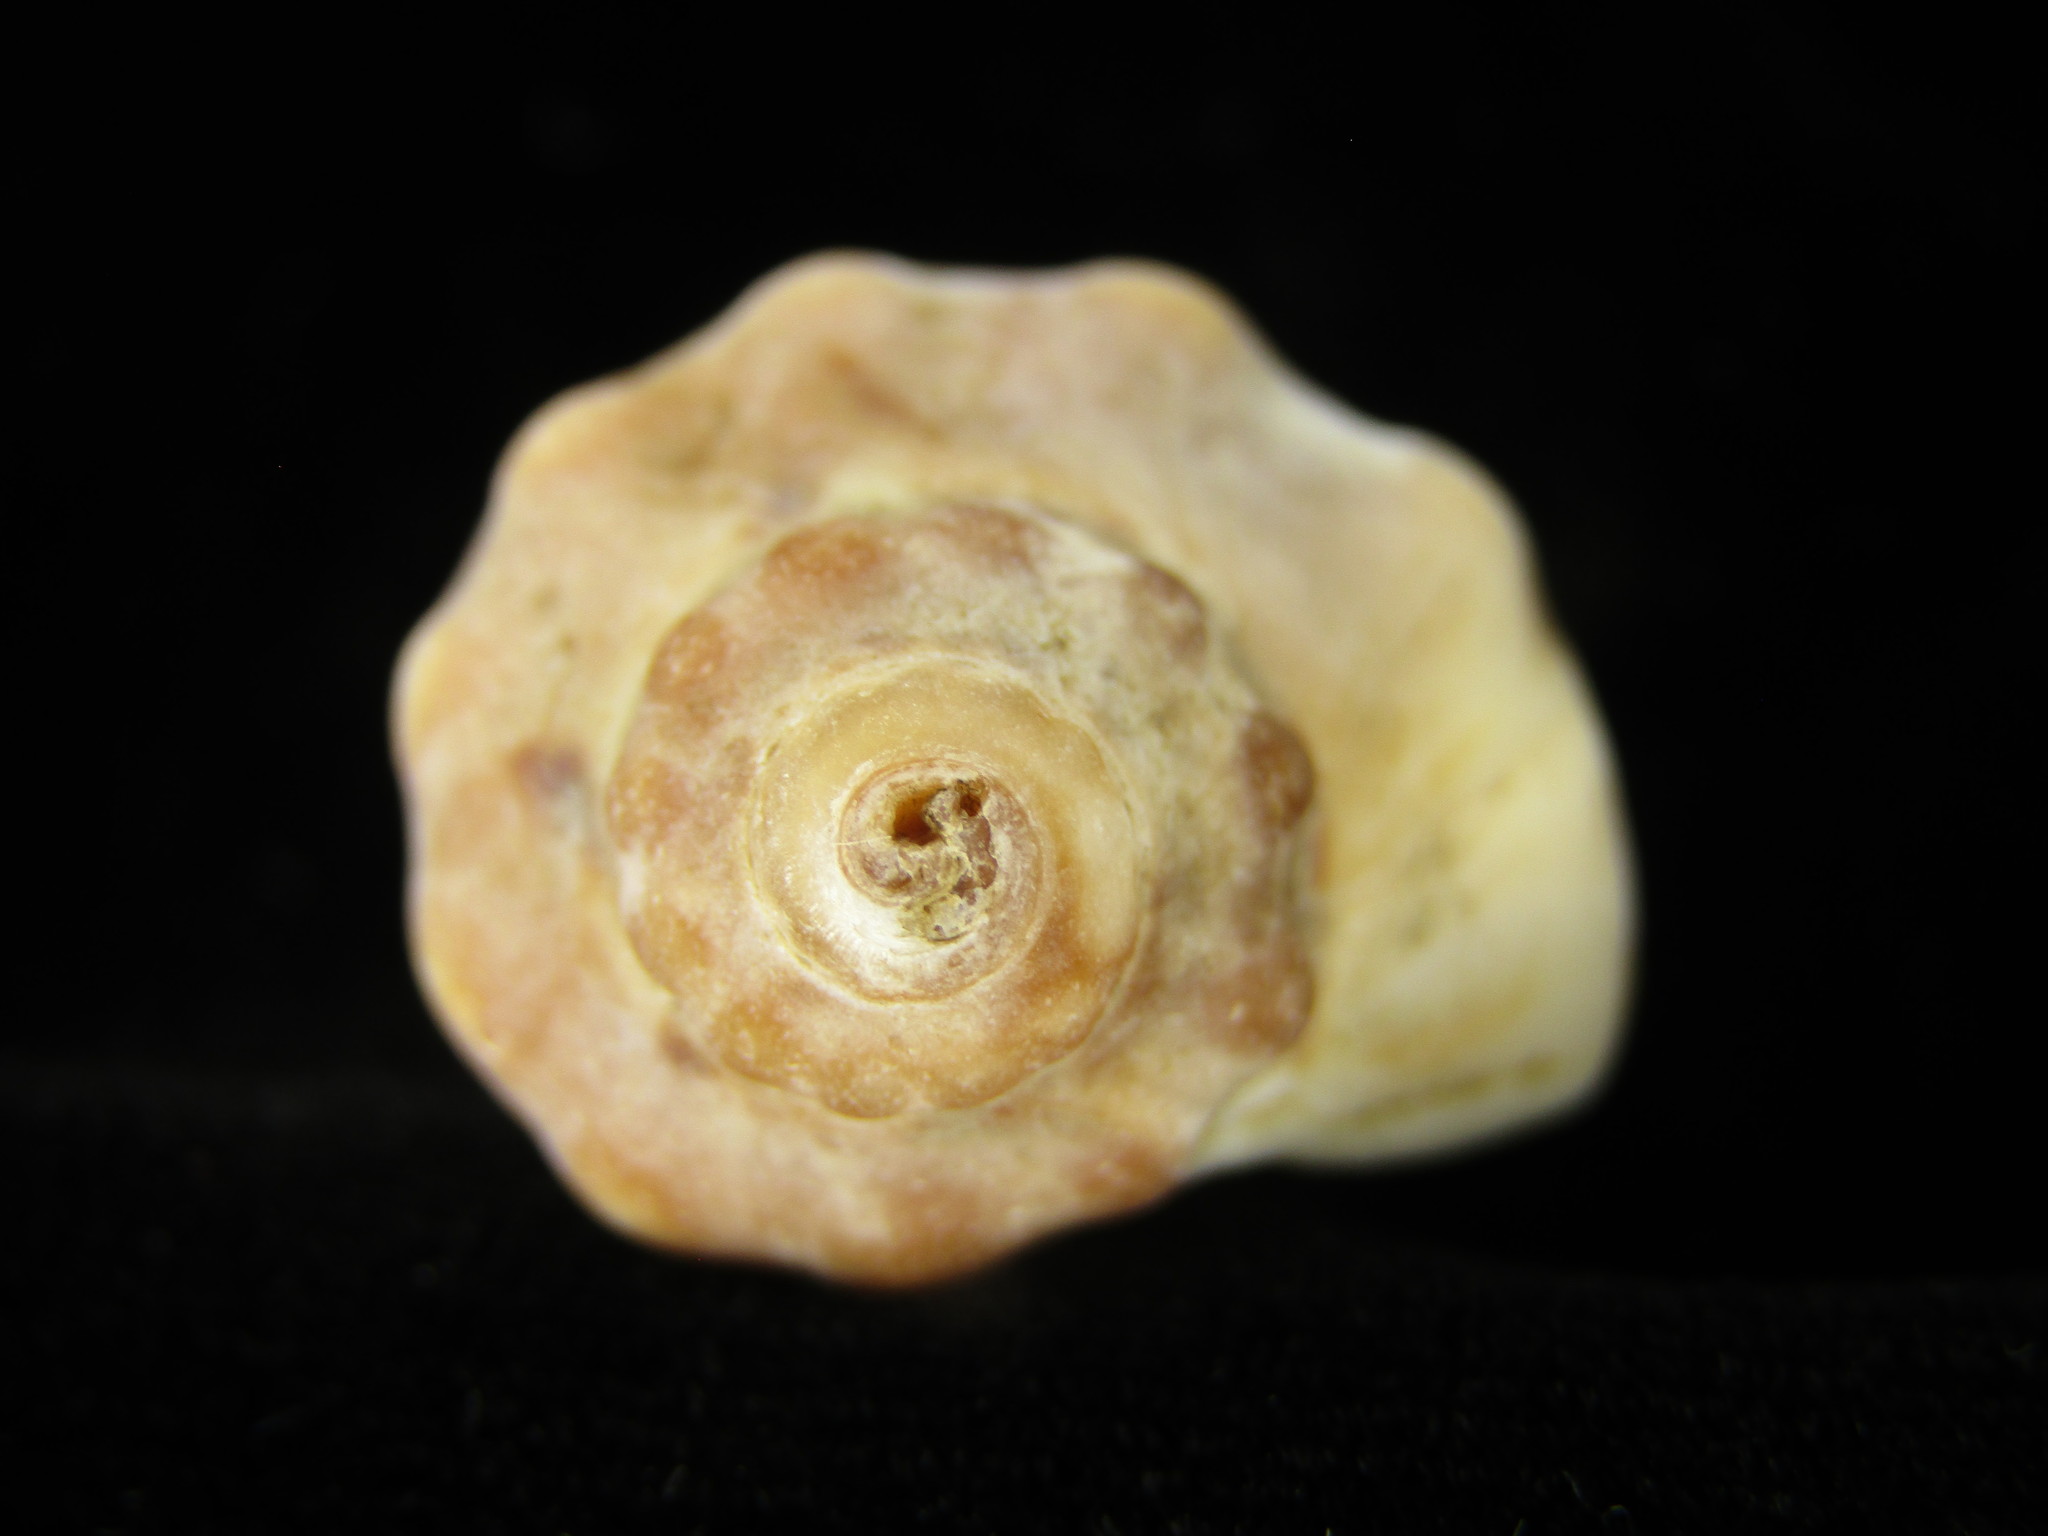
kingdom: Animalia
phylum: Mollusca
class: Gastropoda
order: Neogastropoda
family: Buccinidae
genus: Siphonalia
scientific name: Siphonalia signum
